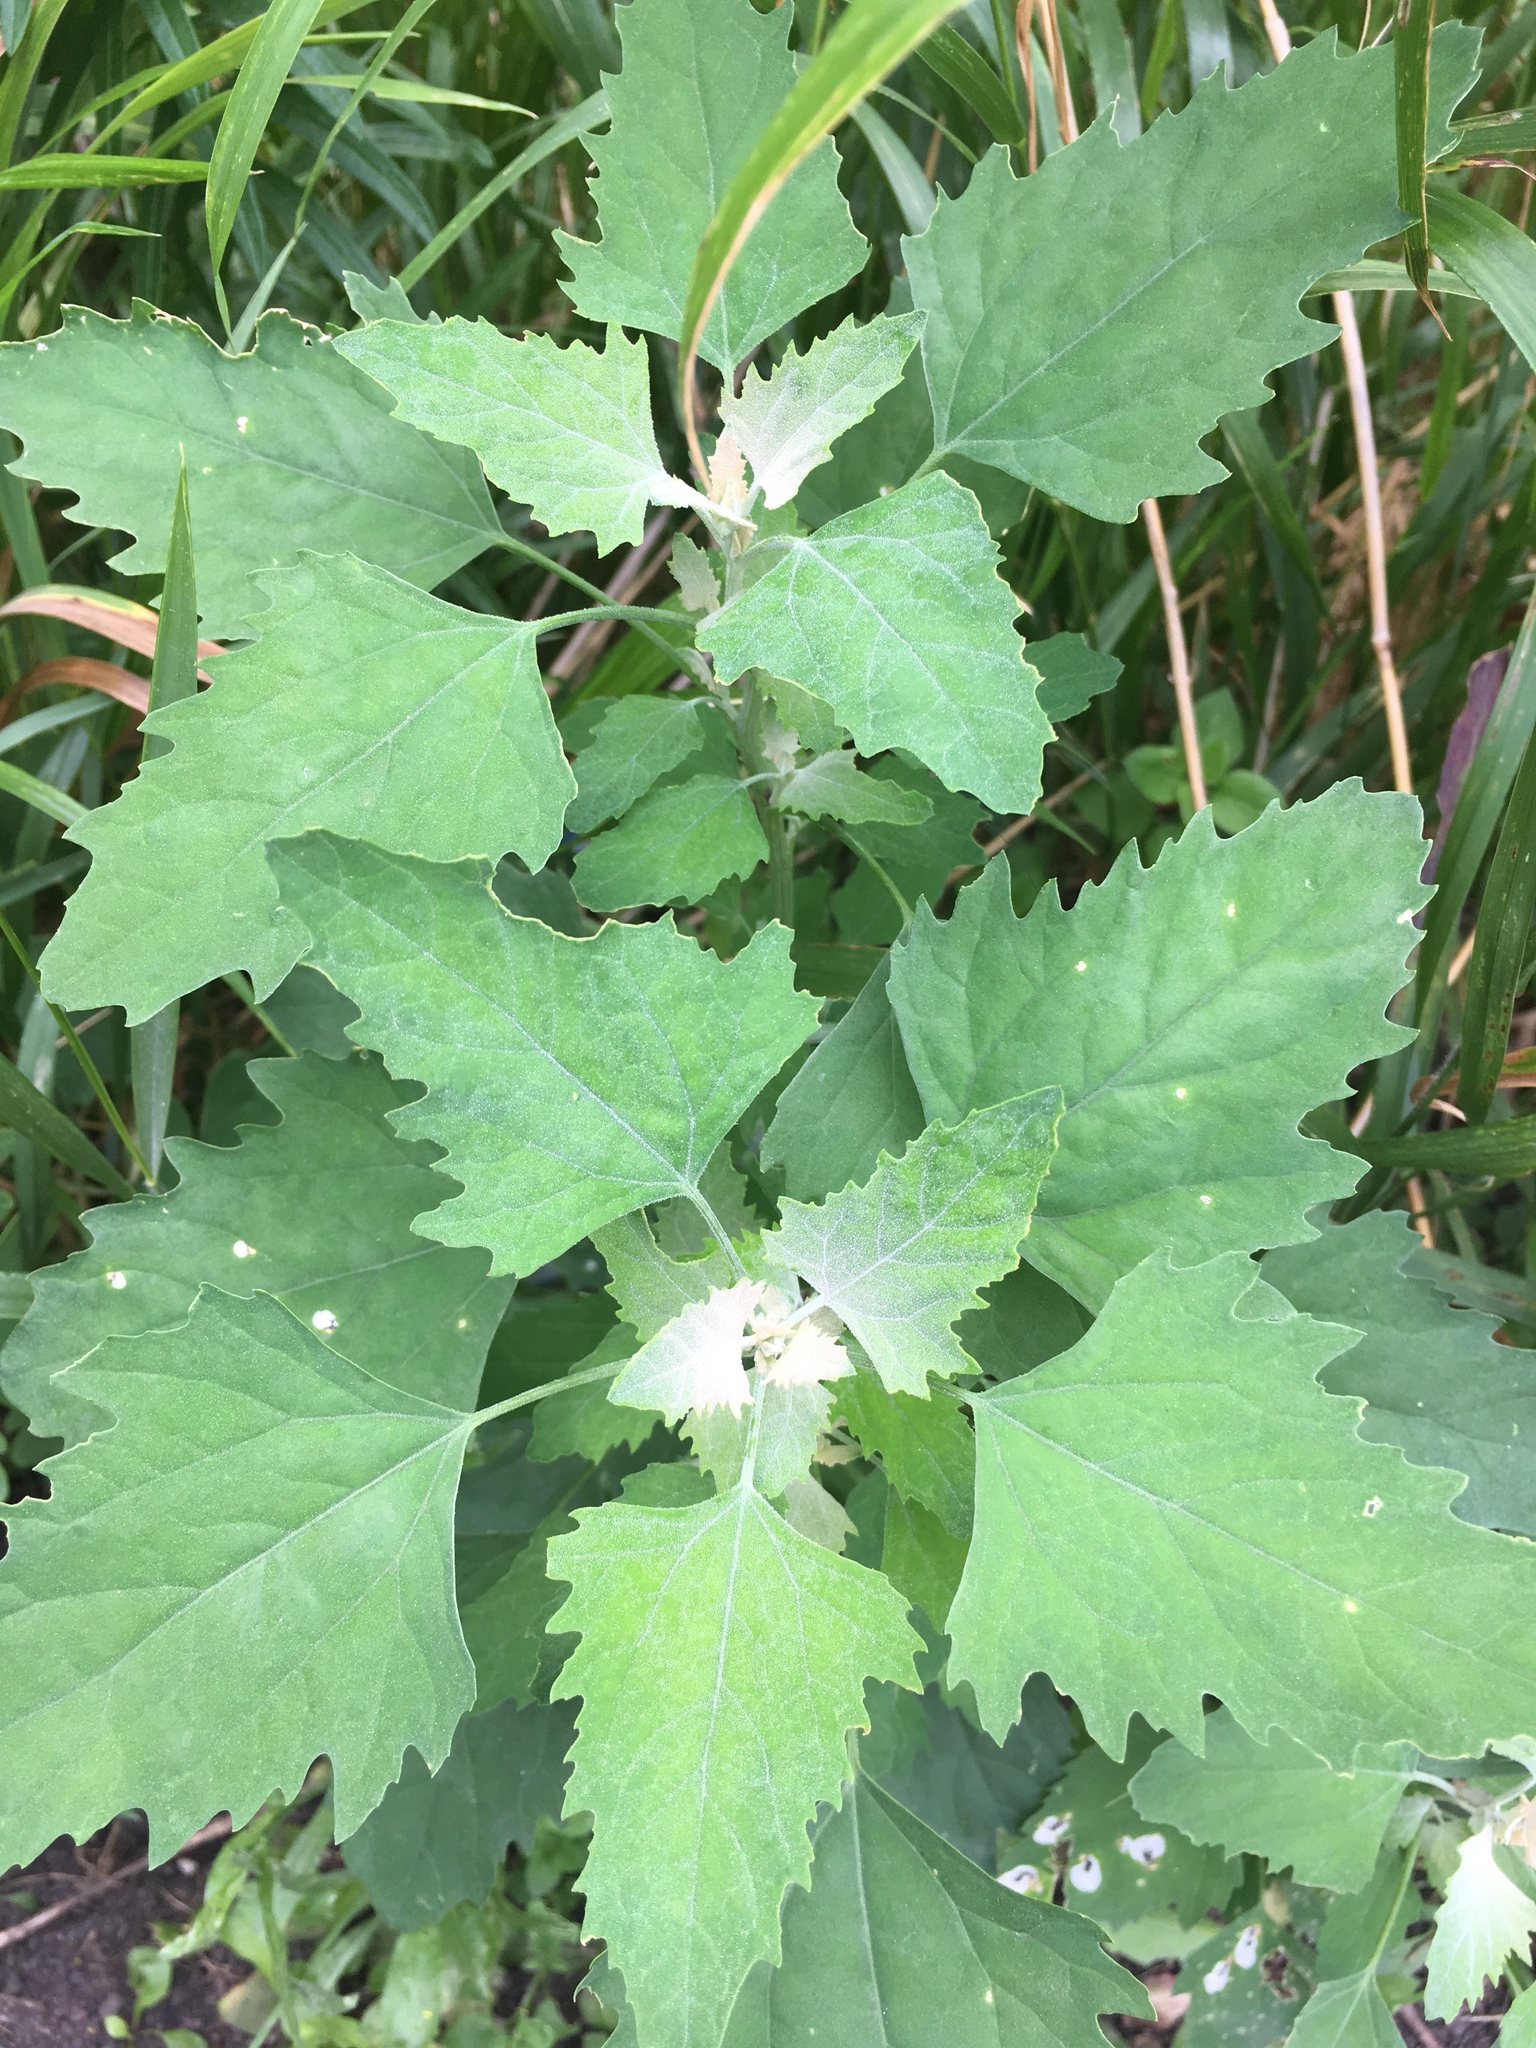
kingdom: Plantae
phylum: Tracheophyta
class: Magnoliopsida
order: Caryophyllales
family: Amaranthaceae
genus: Chenopodium
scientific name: Chenopodium album
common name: Fat-hen
